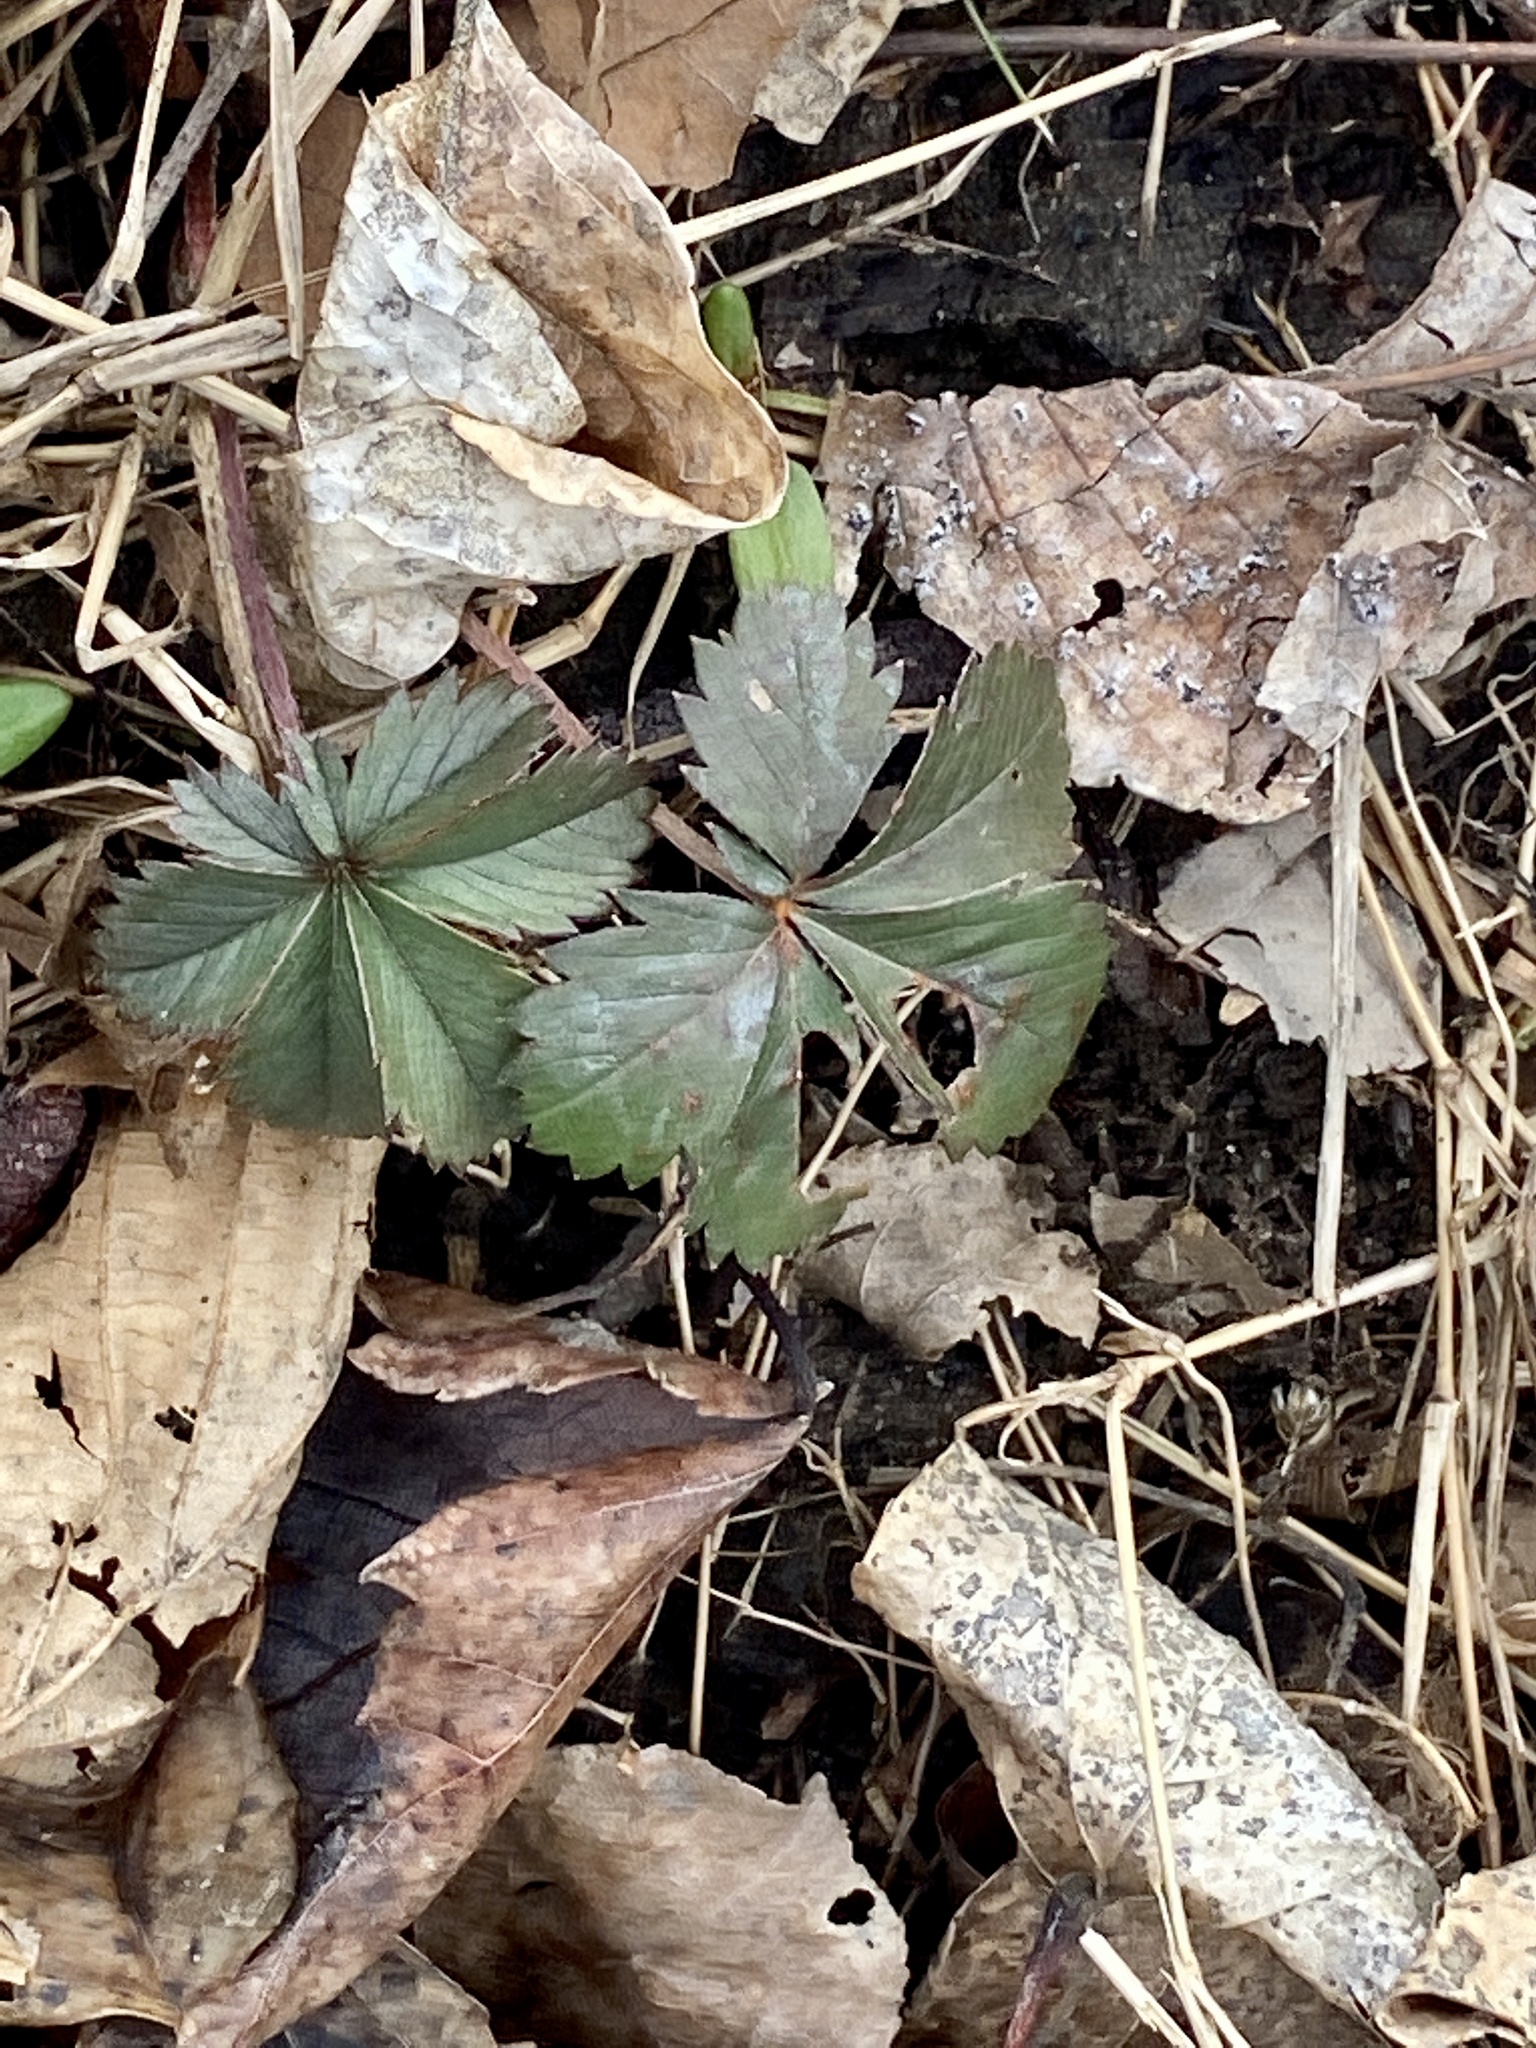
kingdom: Plantae
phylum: Tracheophyta
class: Magnoliopsida
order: Rosales
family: Rosaceae
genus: Potentilla
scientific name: Potentilla canadensis
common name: Canada cinquefoil
